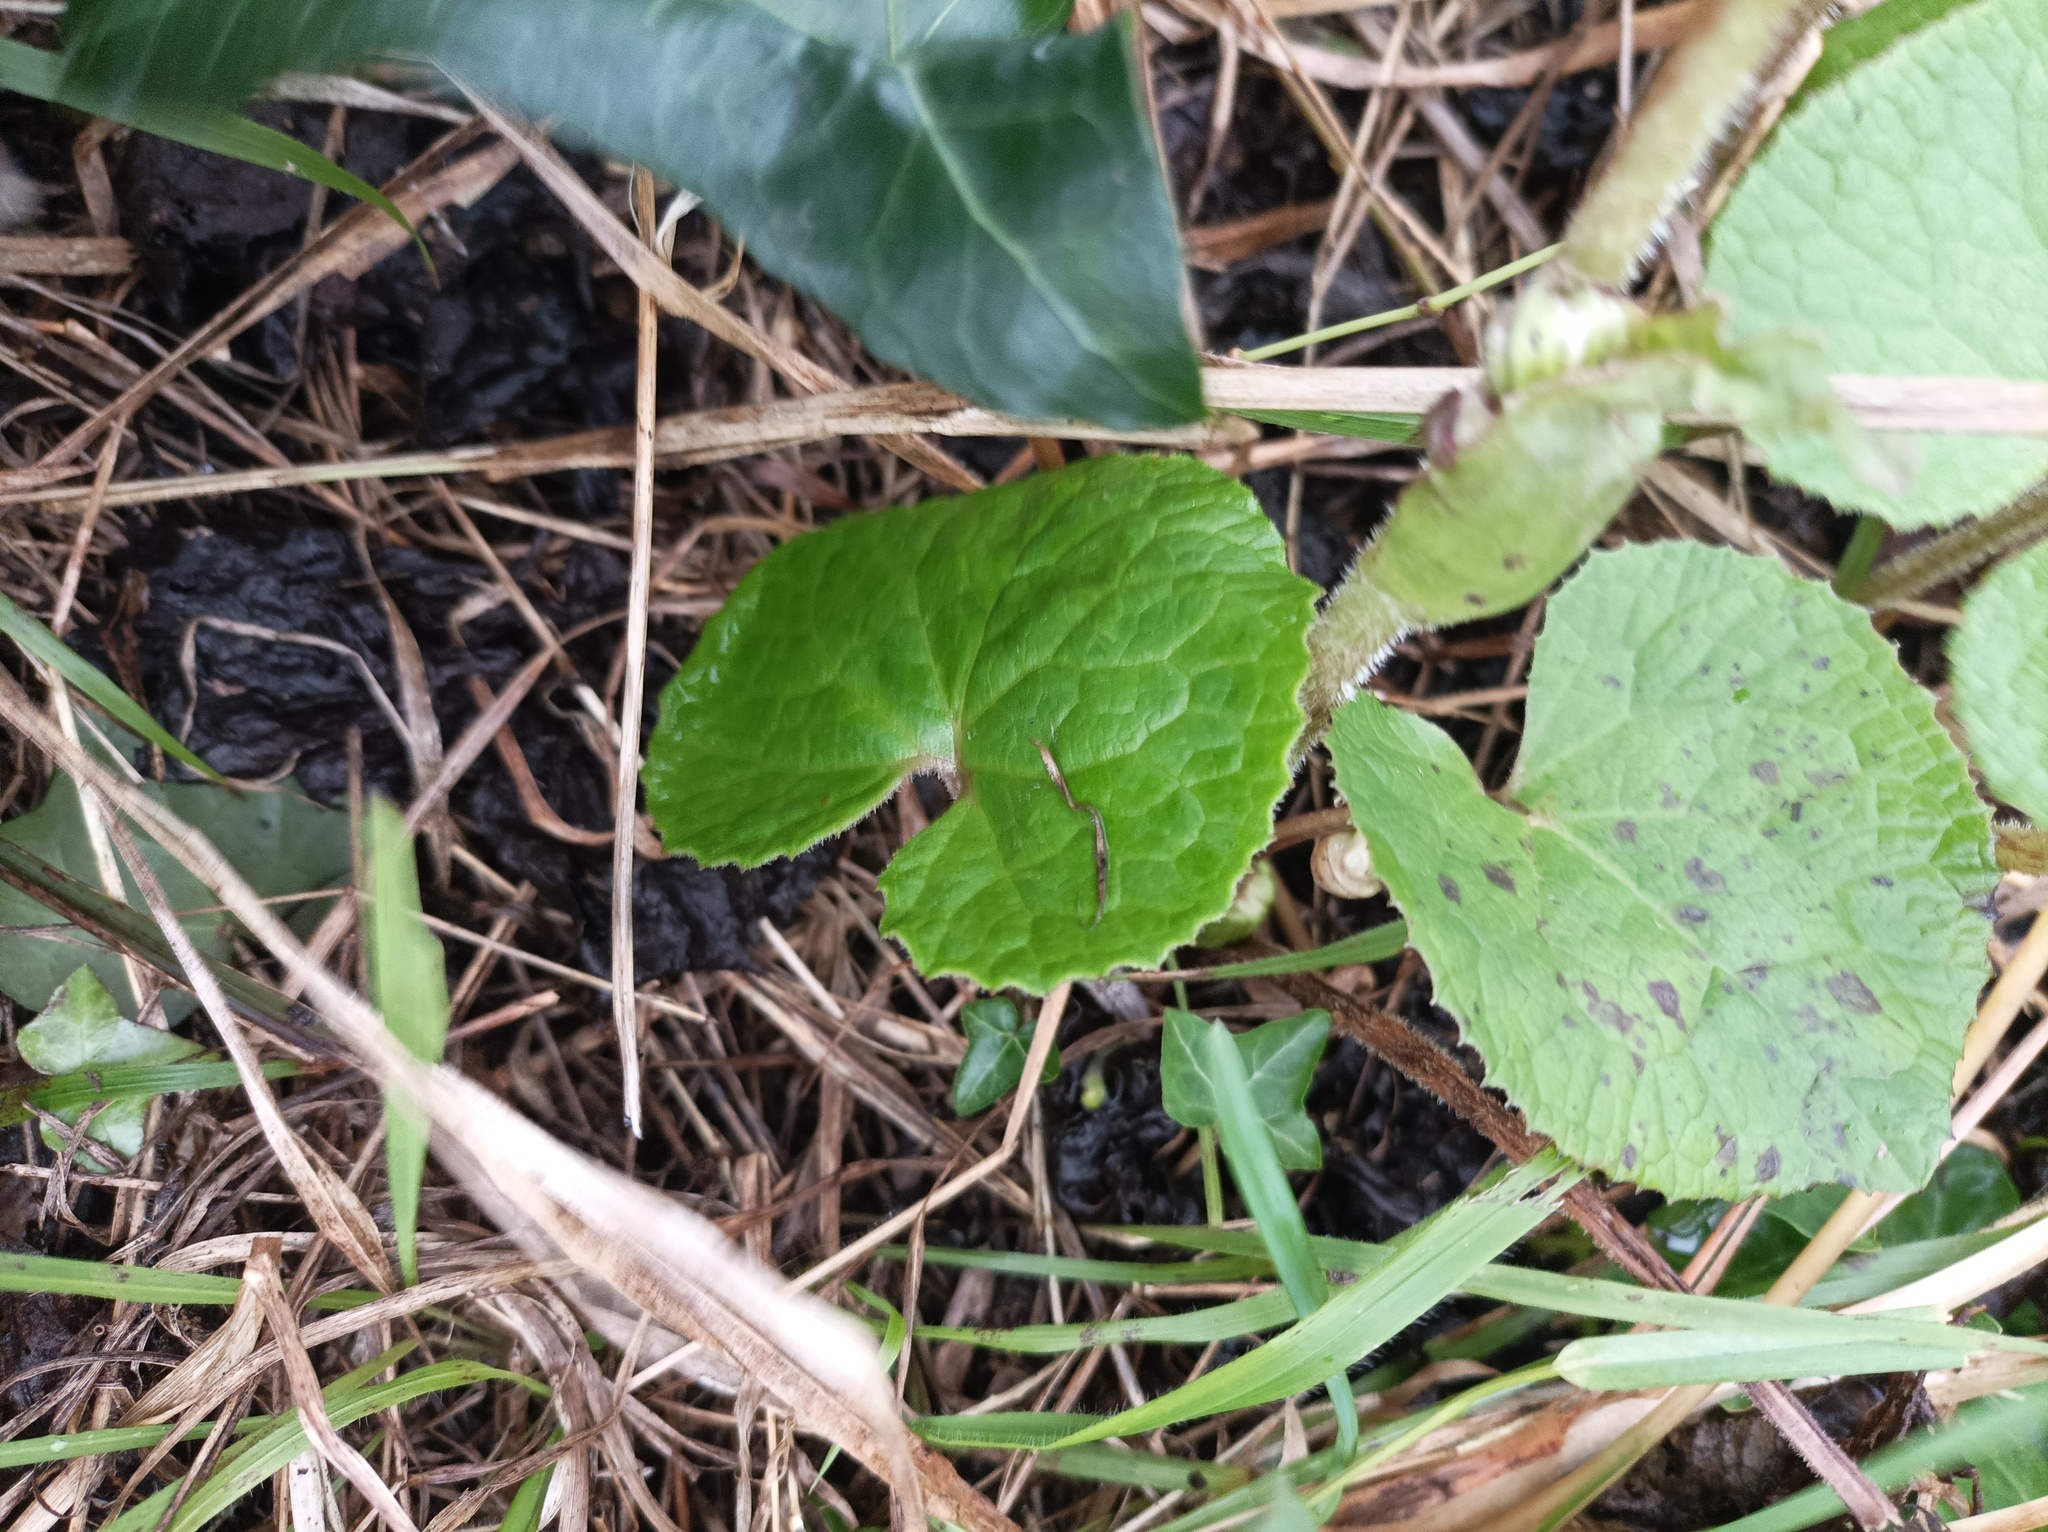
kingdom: Plantae
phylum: Tracheophyta
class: Magnoliopsida
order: Asterales
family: Asteraceae
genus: Petasites
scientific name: Petasites pyrenaicus
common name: Winter heliotrope
